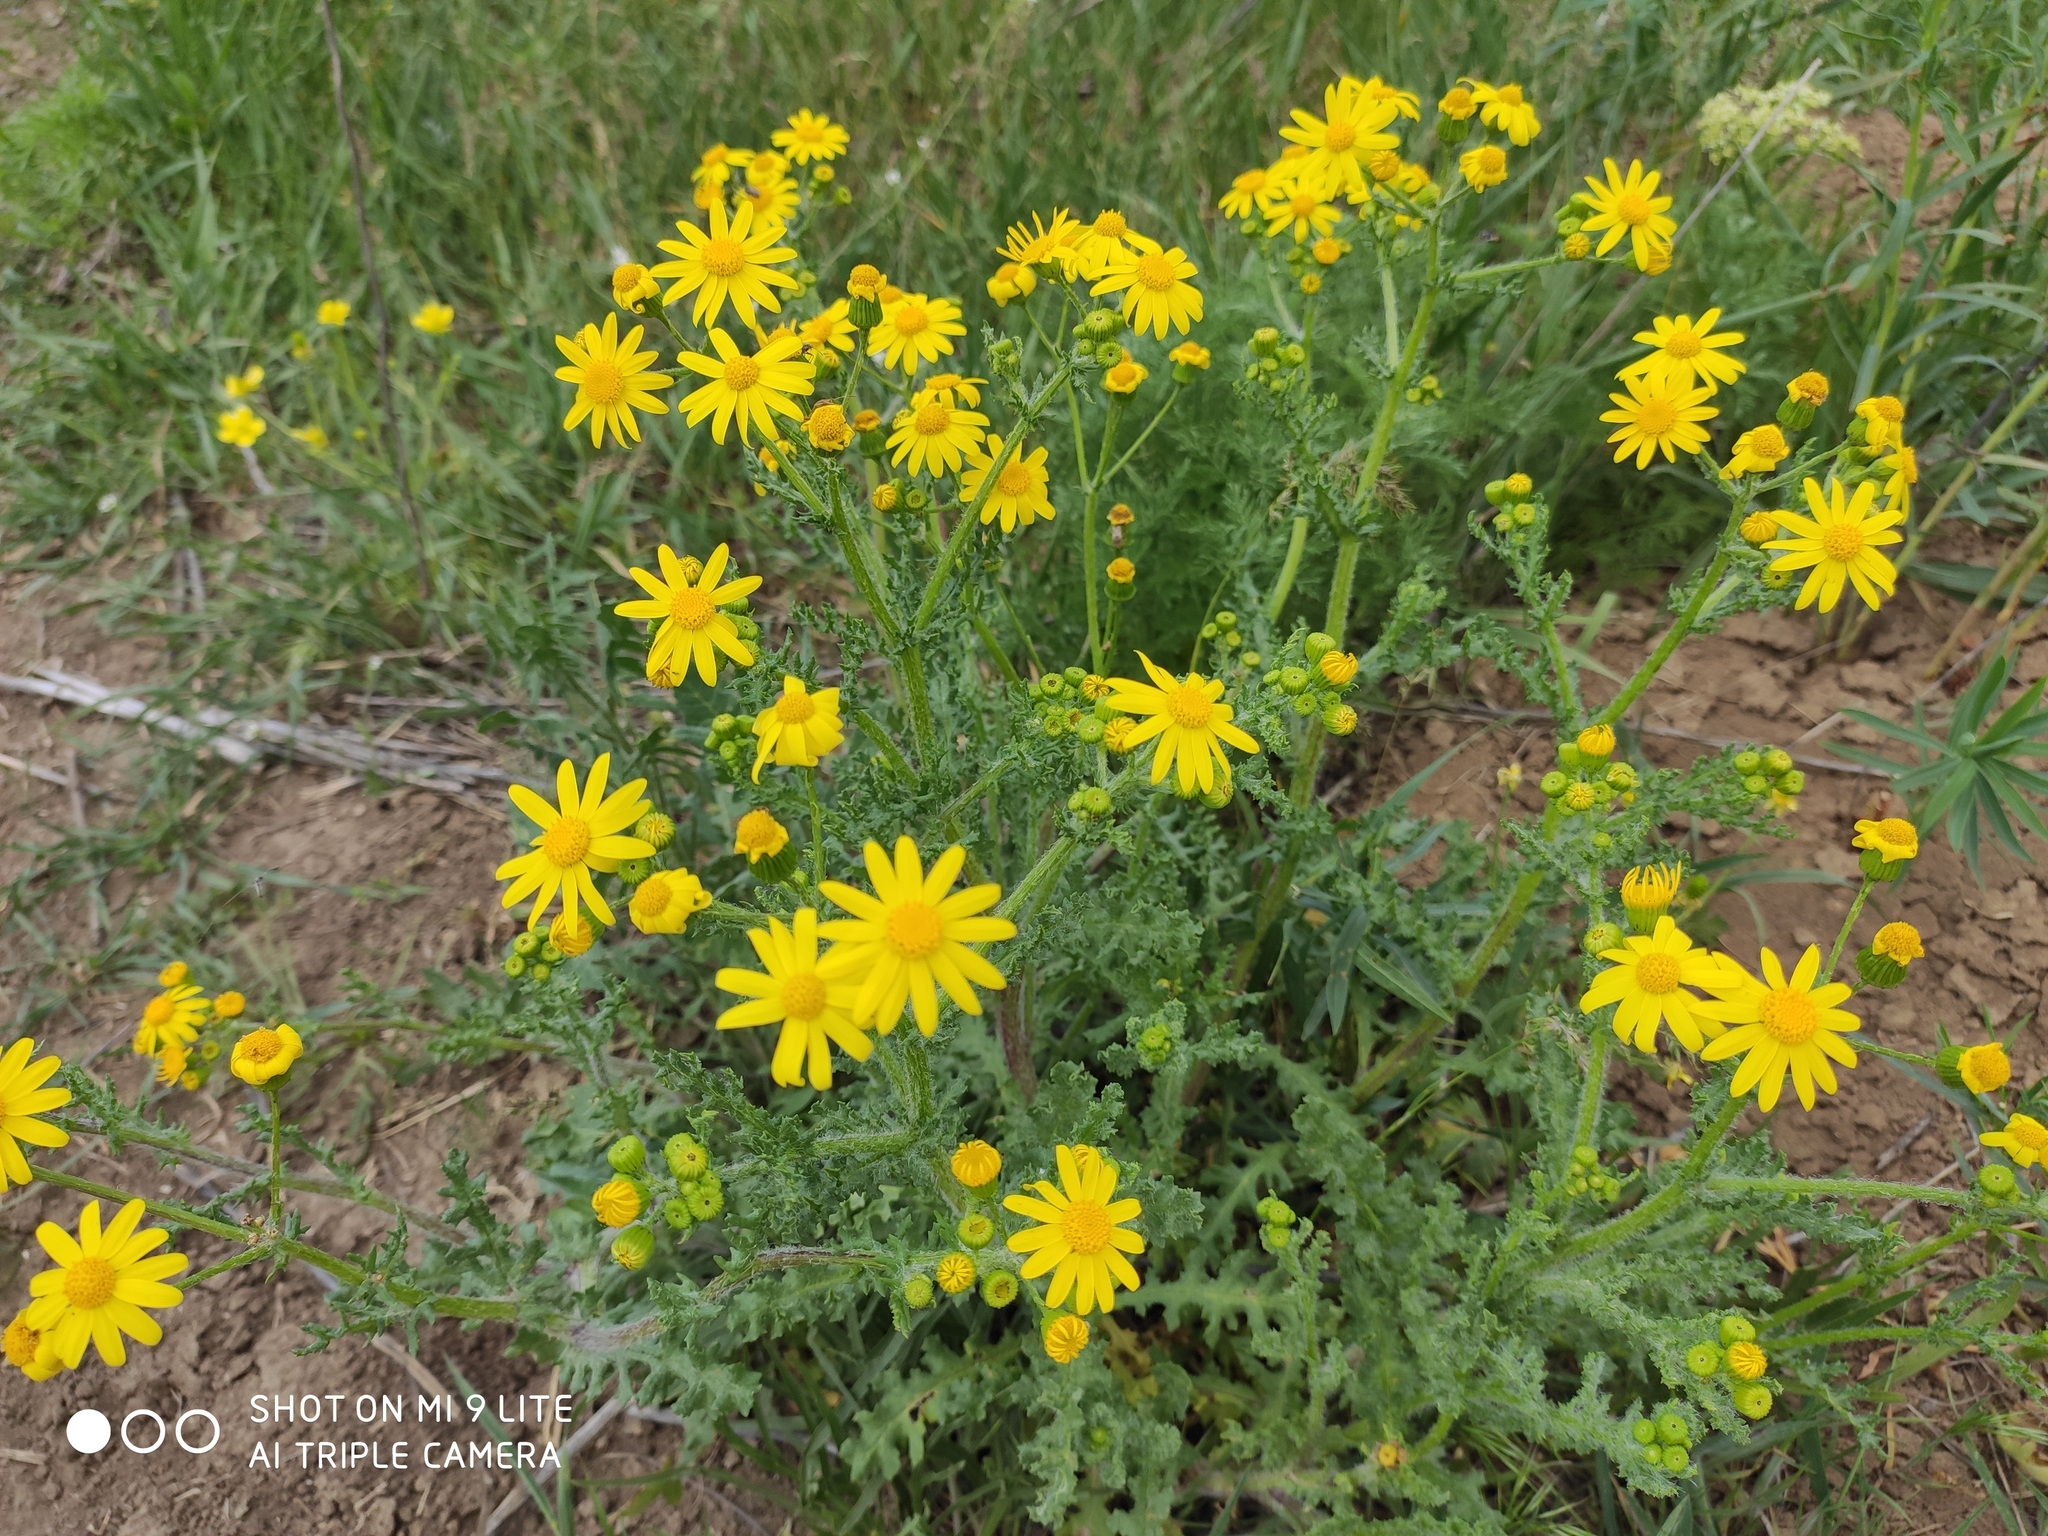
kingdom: Plantae
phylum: Tracheophyta
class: Magnoliopsida
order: Asterales
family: Asteraceae
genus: Senecio
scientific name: Senecio vernalis
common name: Eastern groundsel
